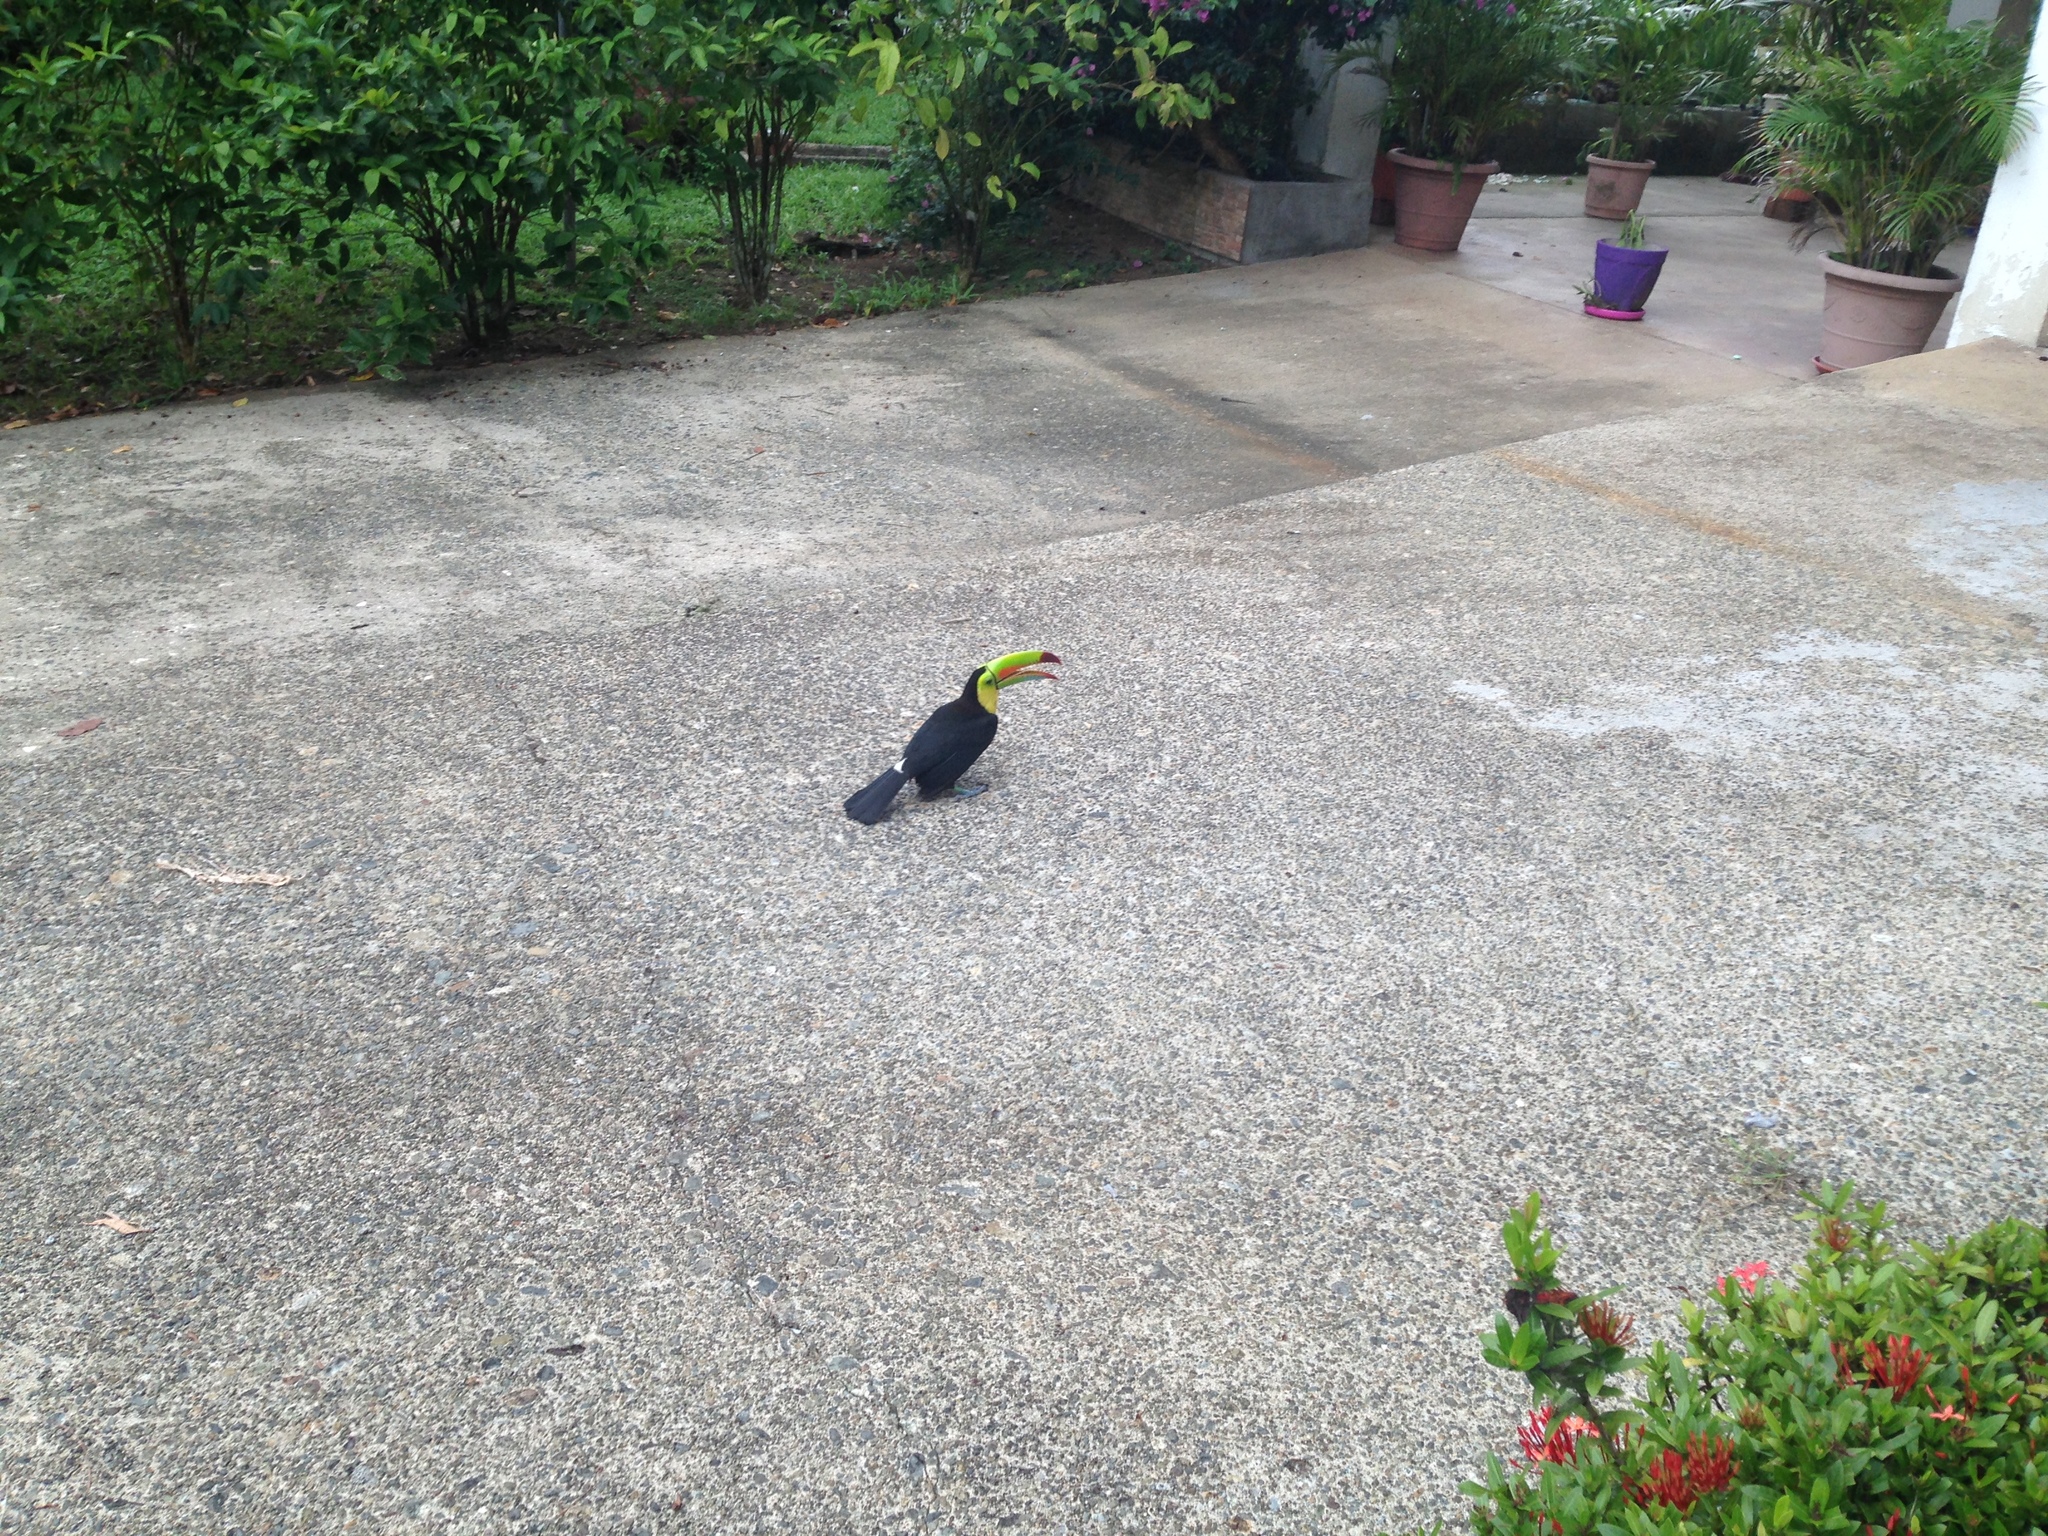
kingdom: Animalia
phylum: Chordata
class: Aves
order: Piciformes
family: Ramphastidae
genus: Ramphastos
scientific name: Ramphastos sulfuratus
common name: Keel-billed toucan
